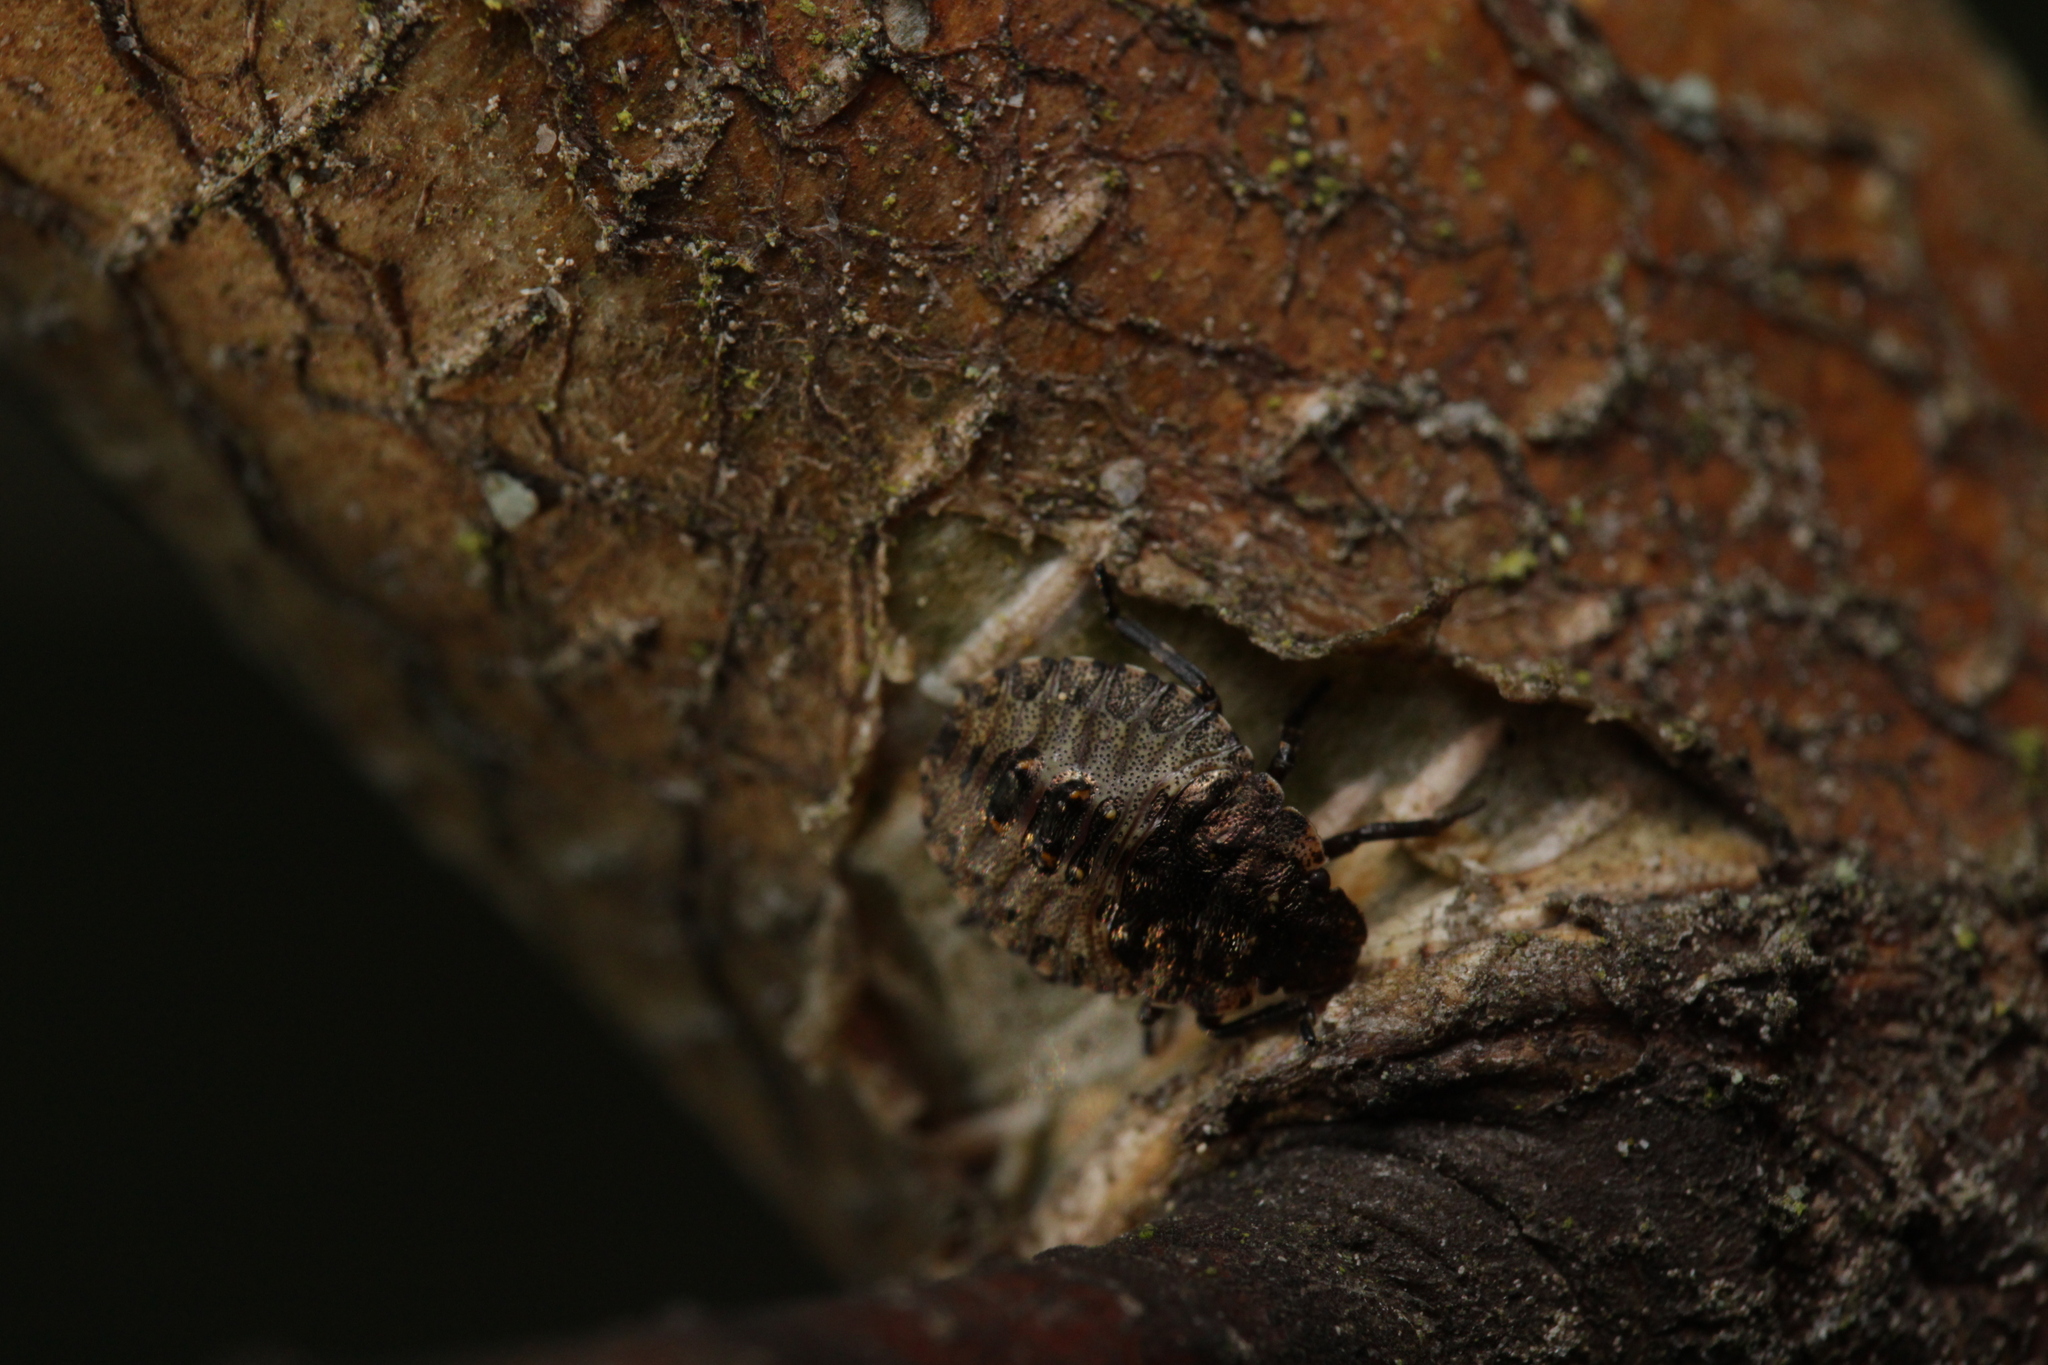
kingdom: Animalia
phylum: Arthropoda
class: Insecta
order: Hemiptera
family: Pentatomidae
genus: Pentatoma
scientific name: Pentatoma rufipes
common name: Forest bug
